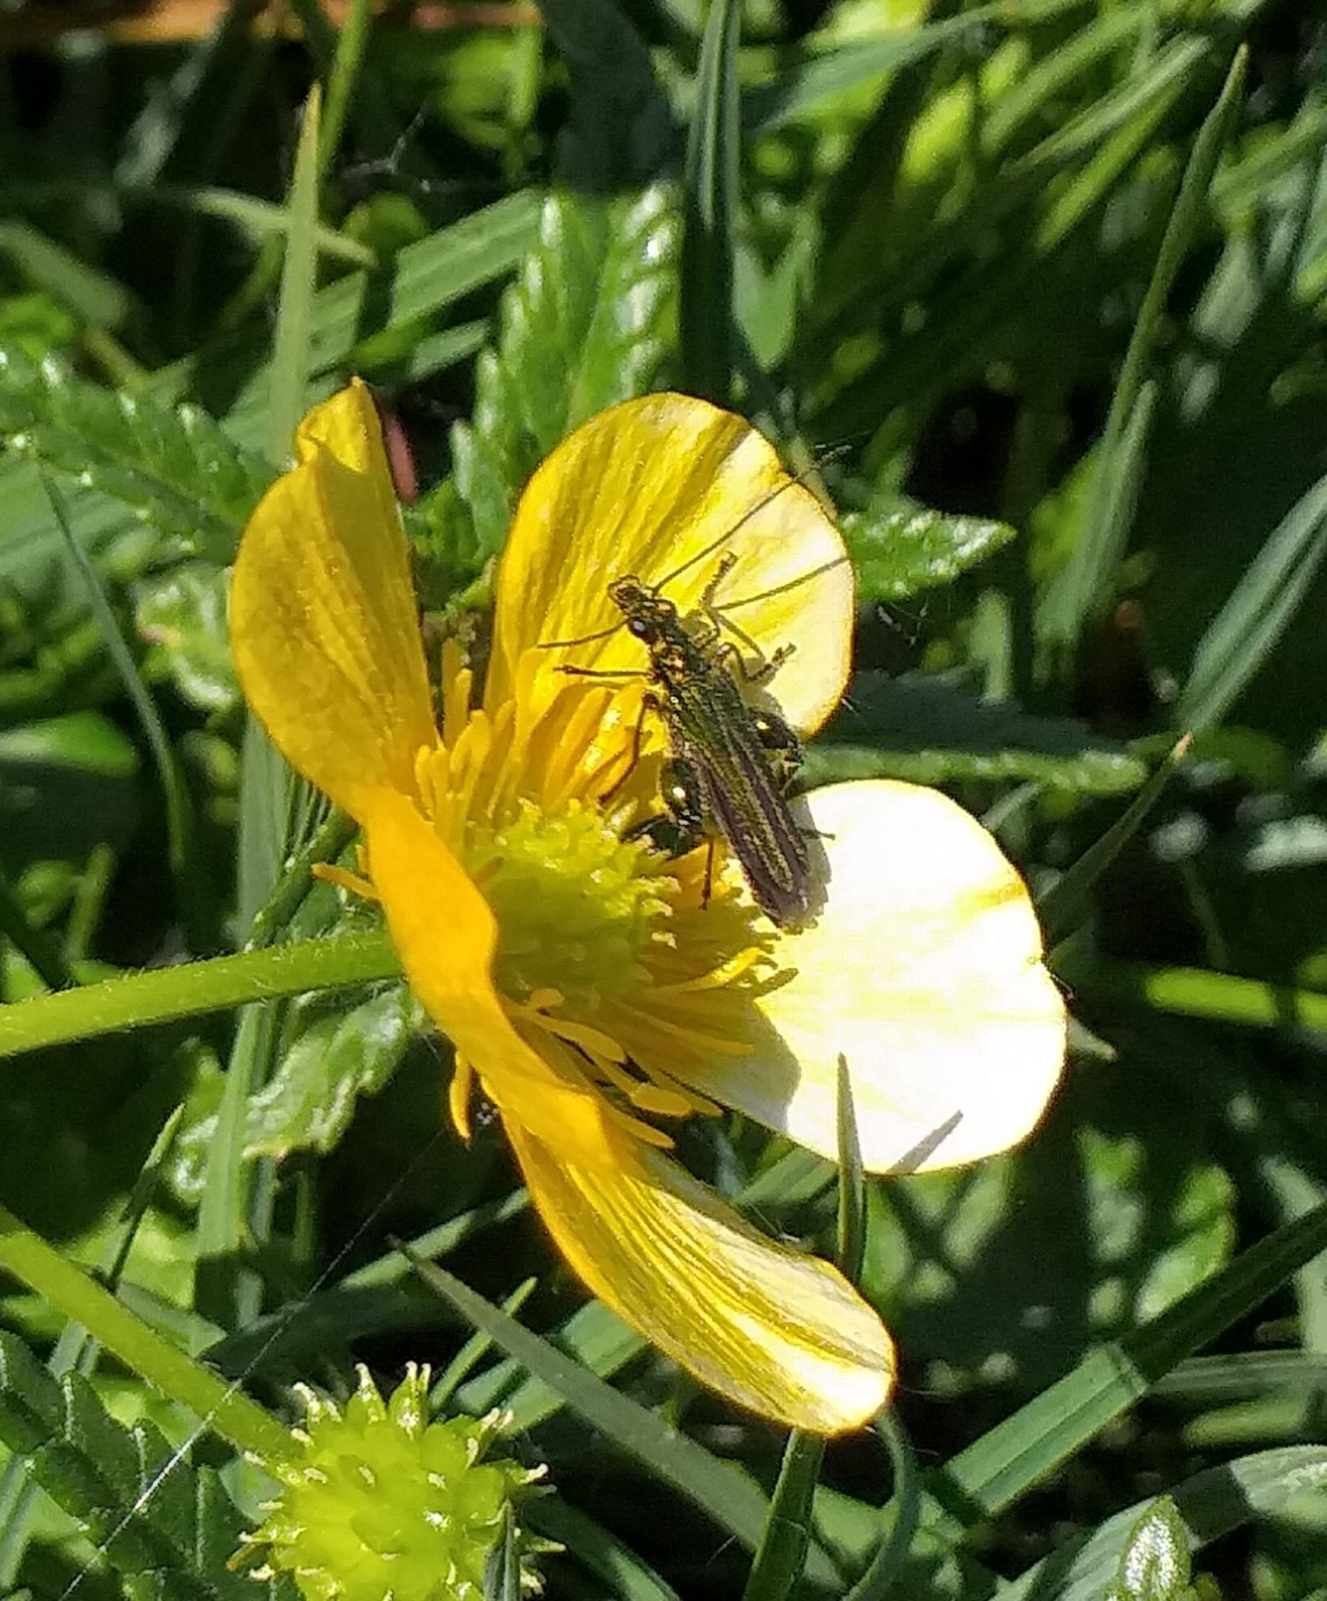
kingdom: Animalia
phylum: Arthropoda
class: Insecta
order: Coleoptera
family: Oedemeridae
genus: Oedemera
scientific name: Oedemera nobilis
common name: Swollen-thighed beetle
